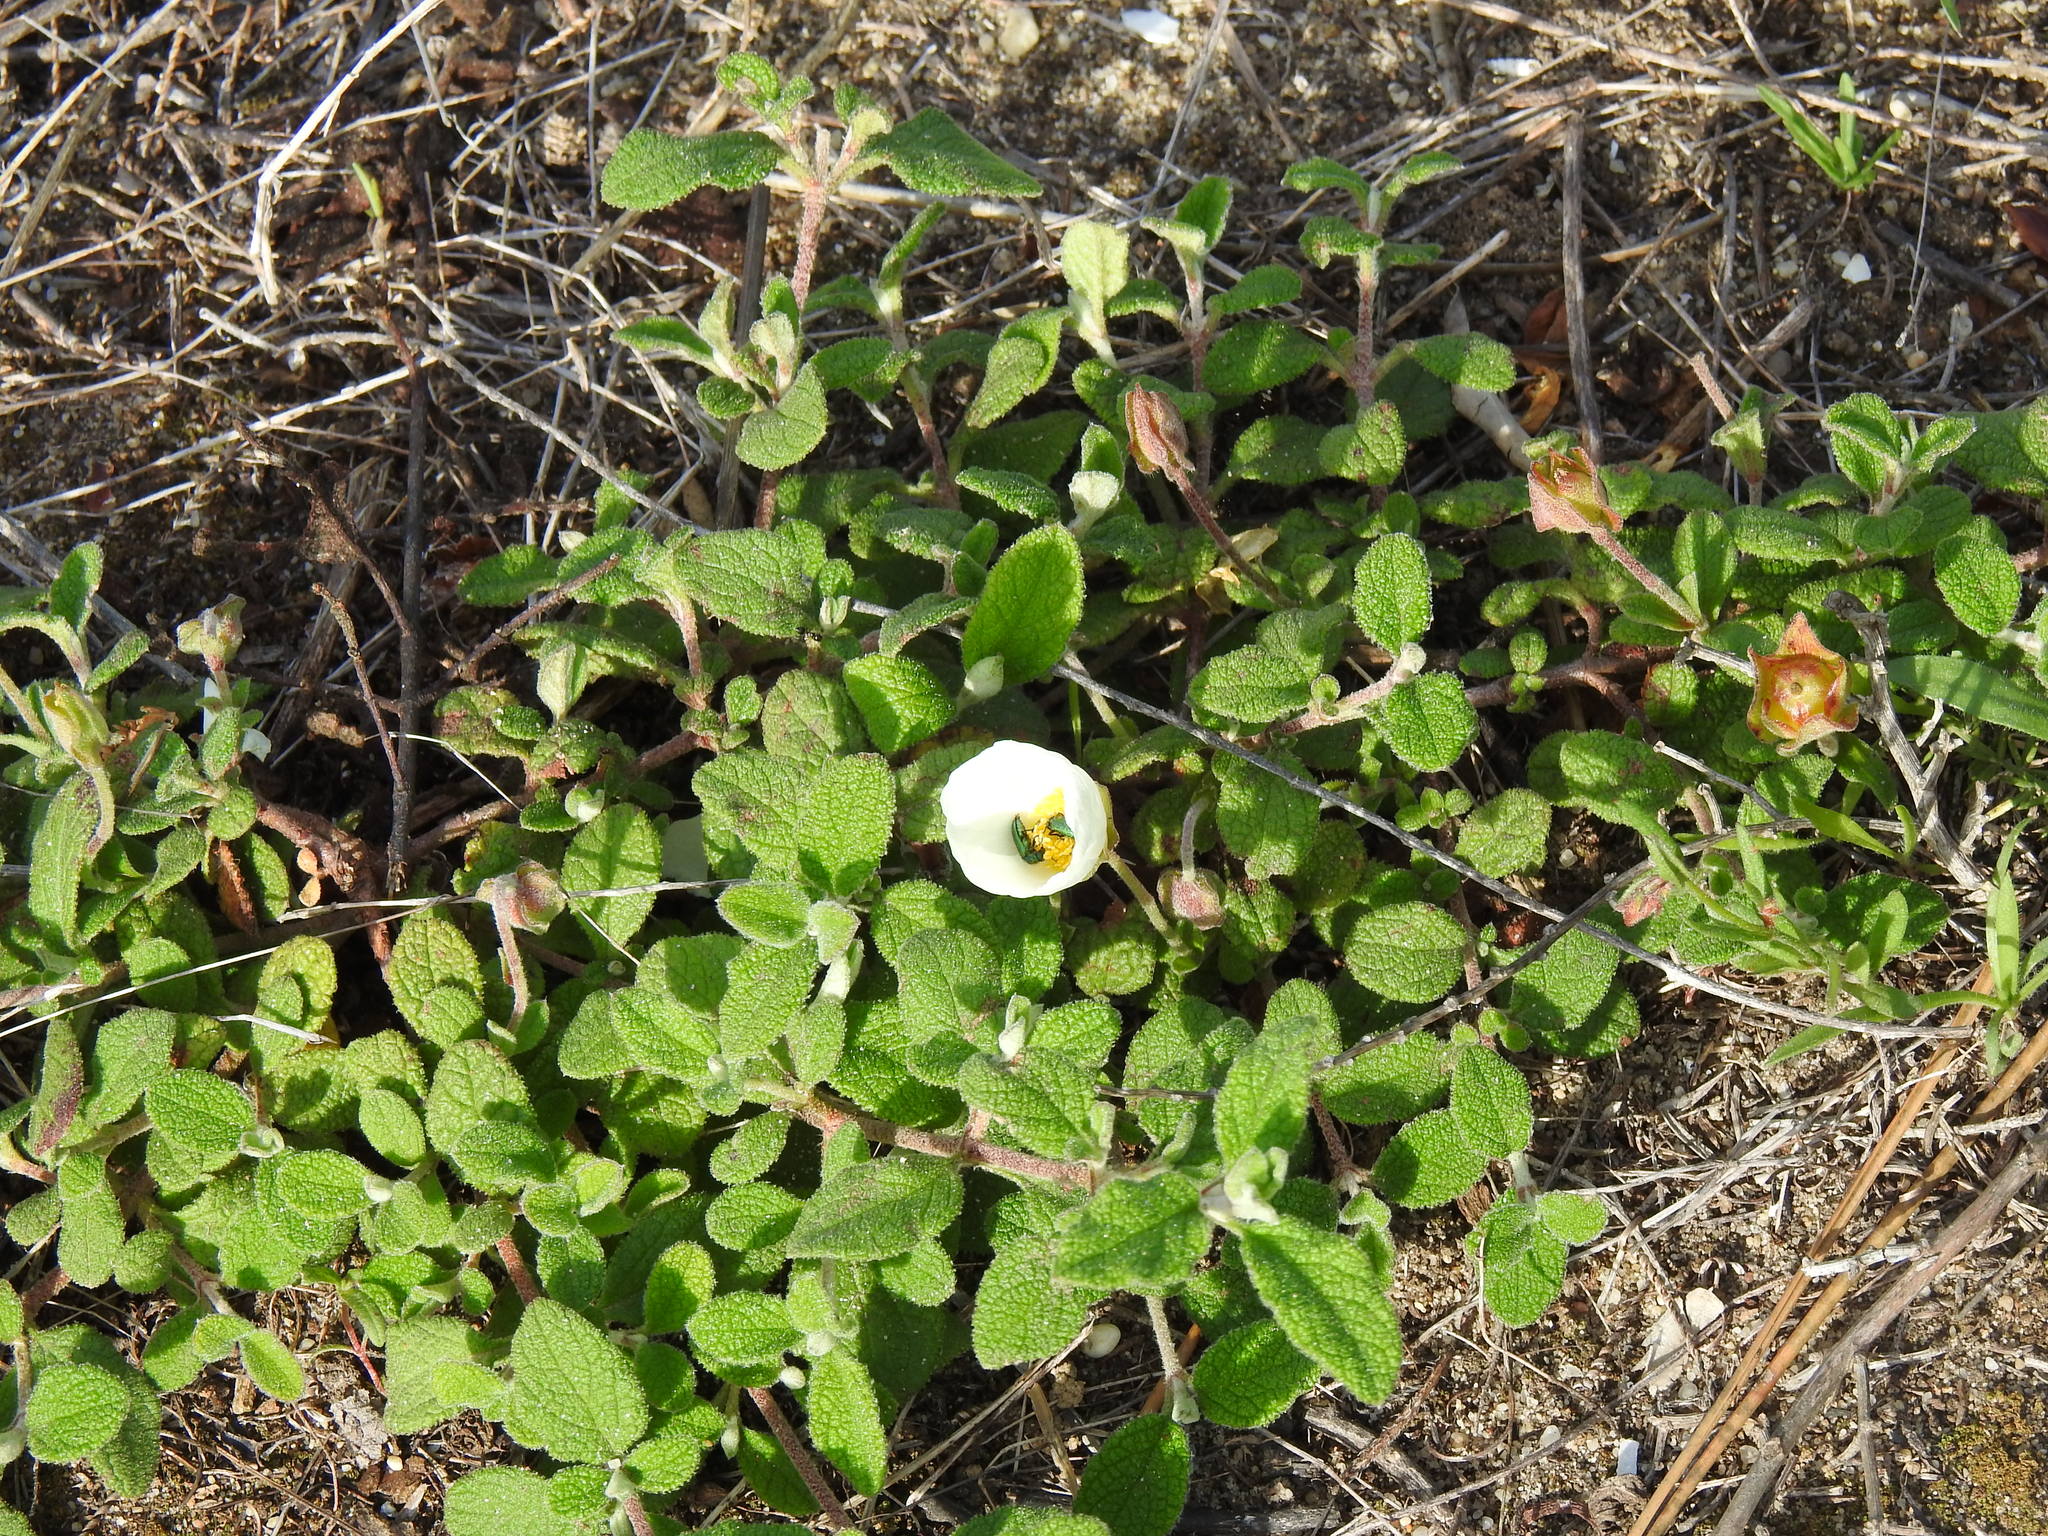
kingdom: Plantae
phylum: Tracheophyta
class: Magnoliopsida
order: Malvales
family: Cistaceae
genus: Cistus
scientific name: Cistus salviifolius
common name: Salvia cistus
